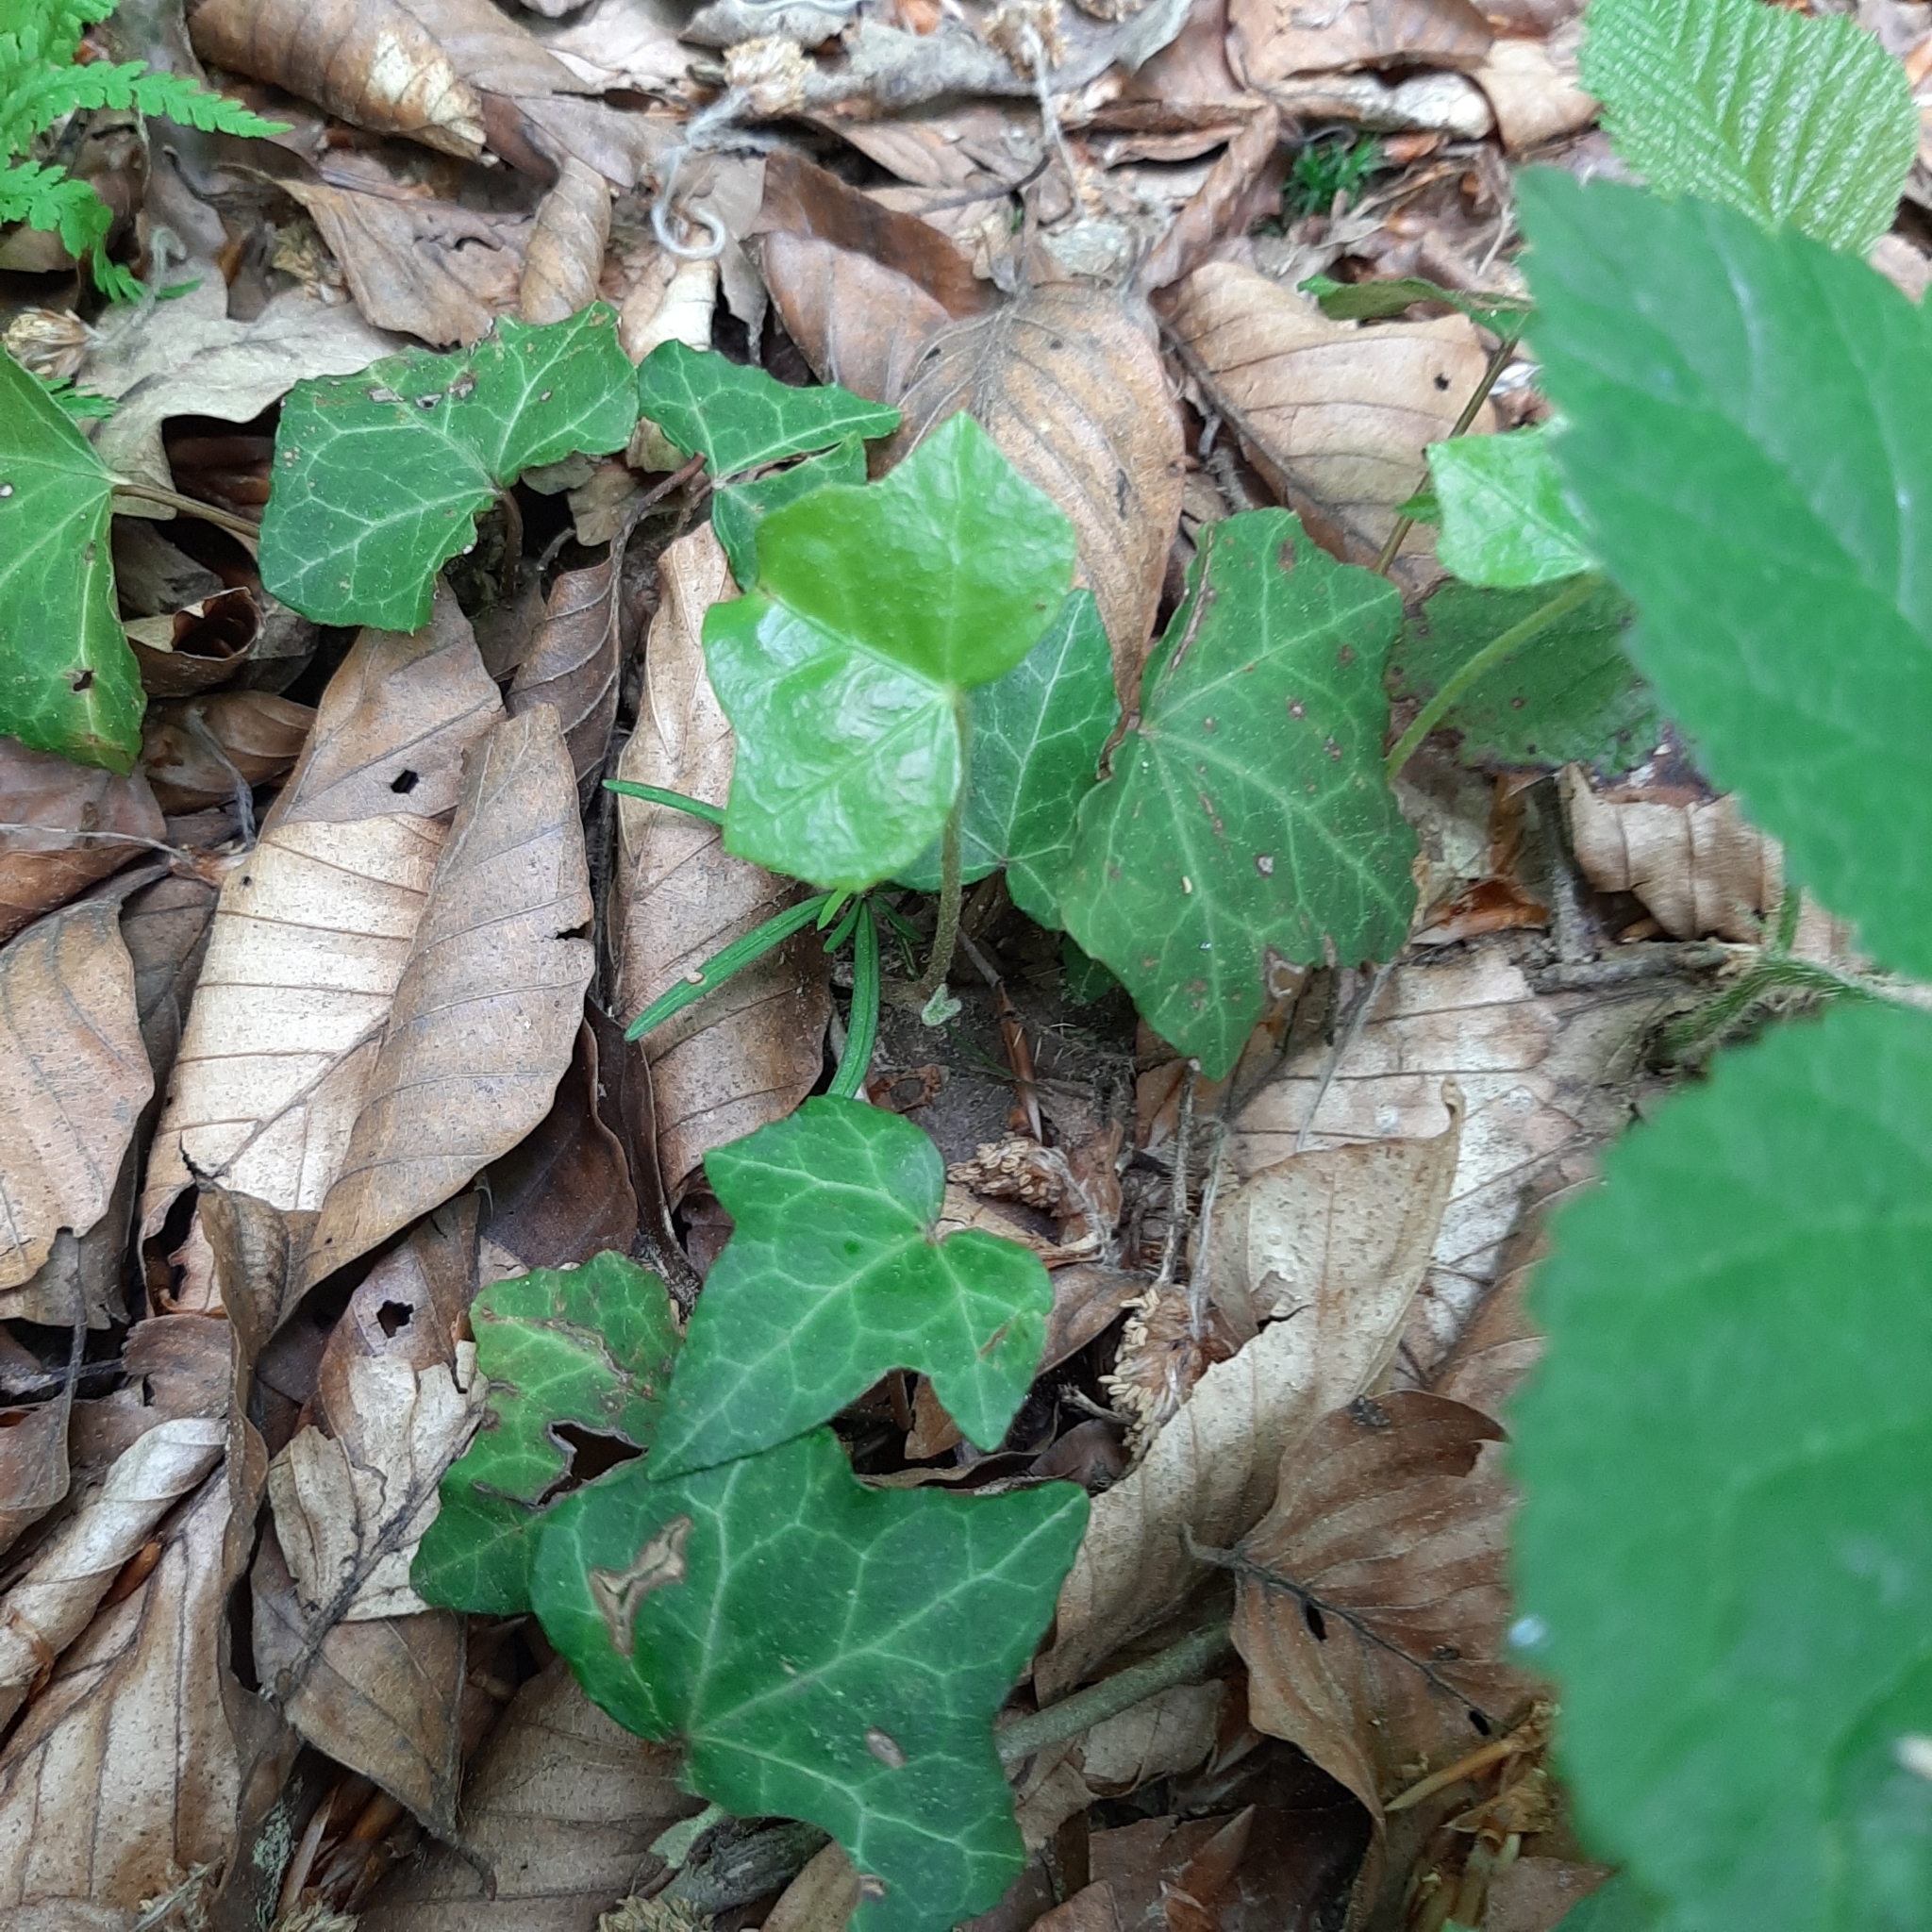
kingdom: Plantae
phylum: Tracheophyta
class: Magnoliopsida
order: Apiales
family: Araliaceae
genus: Hedera
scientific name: Hedera helix
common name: Ivy
